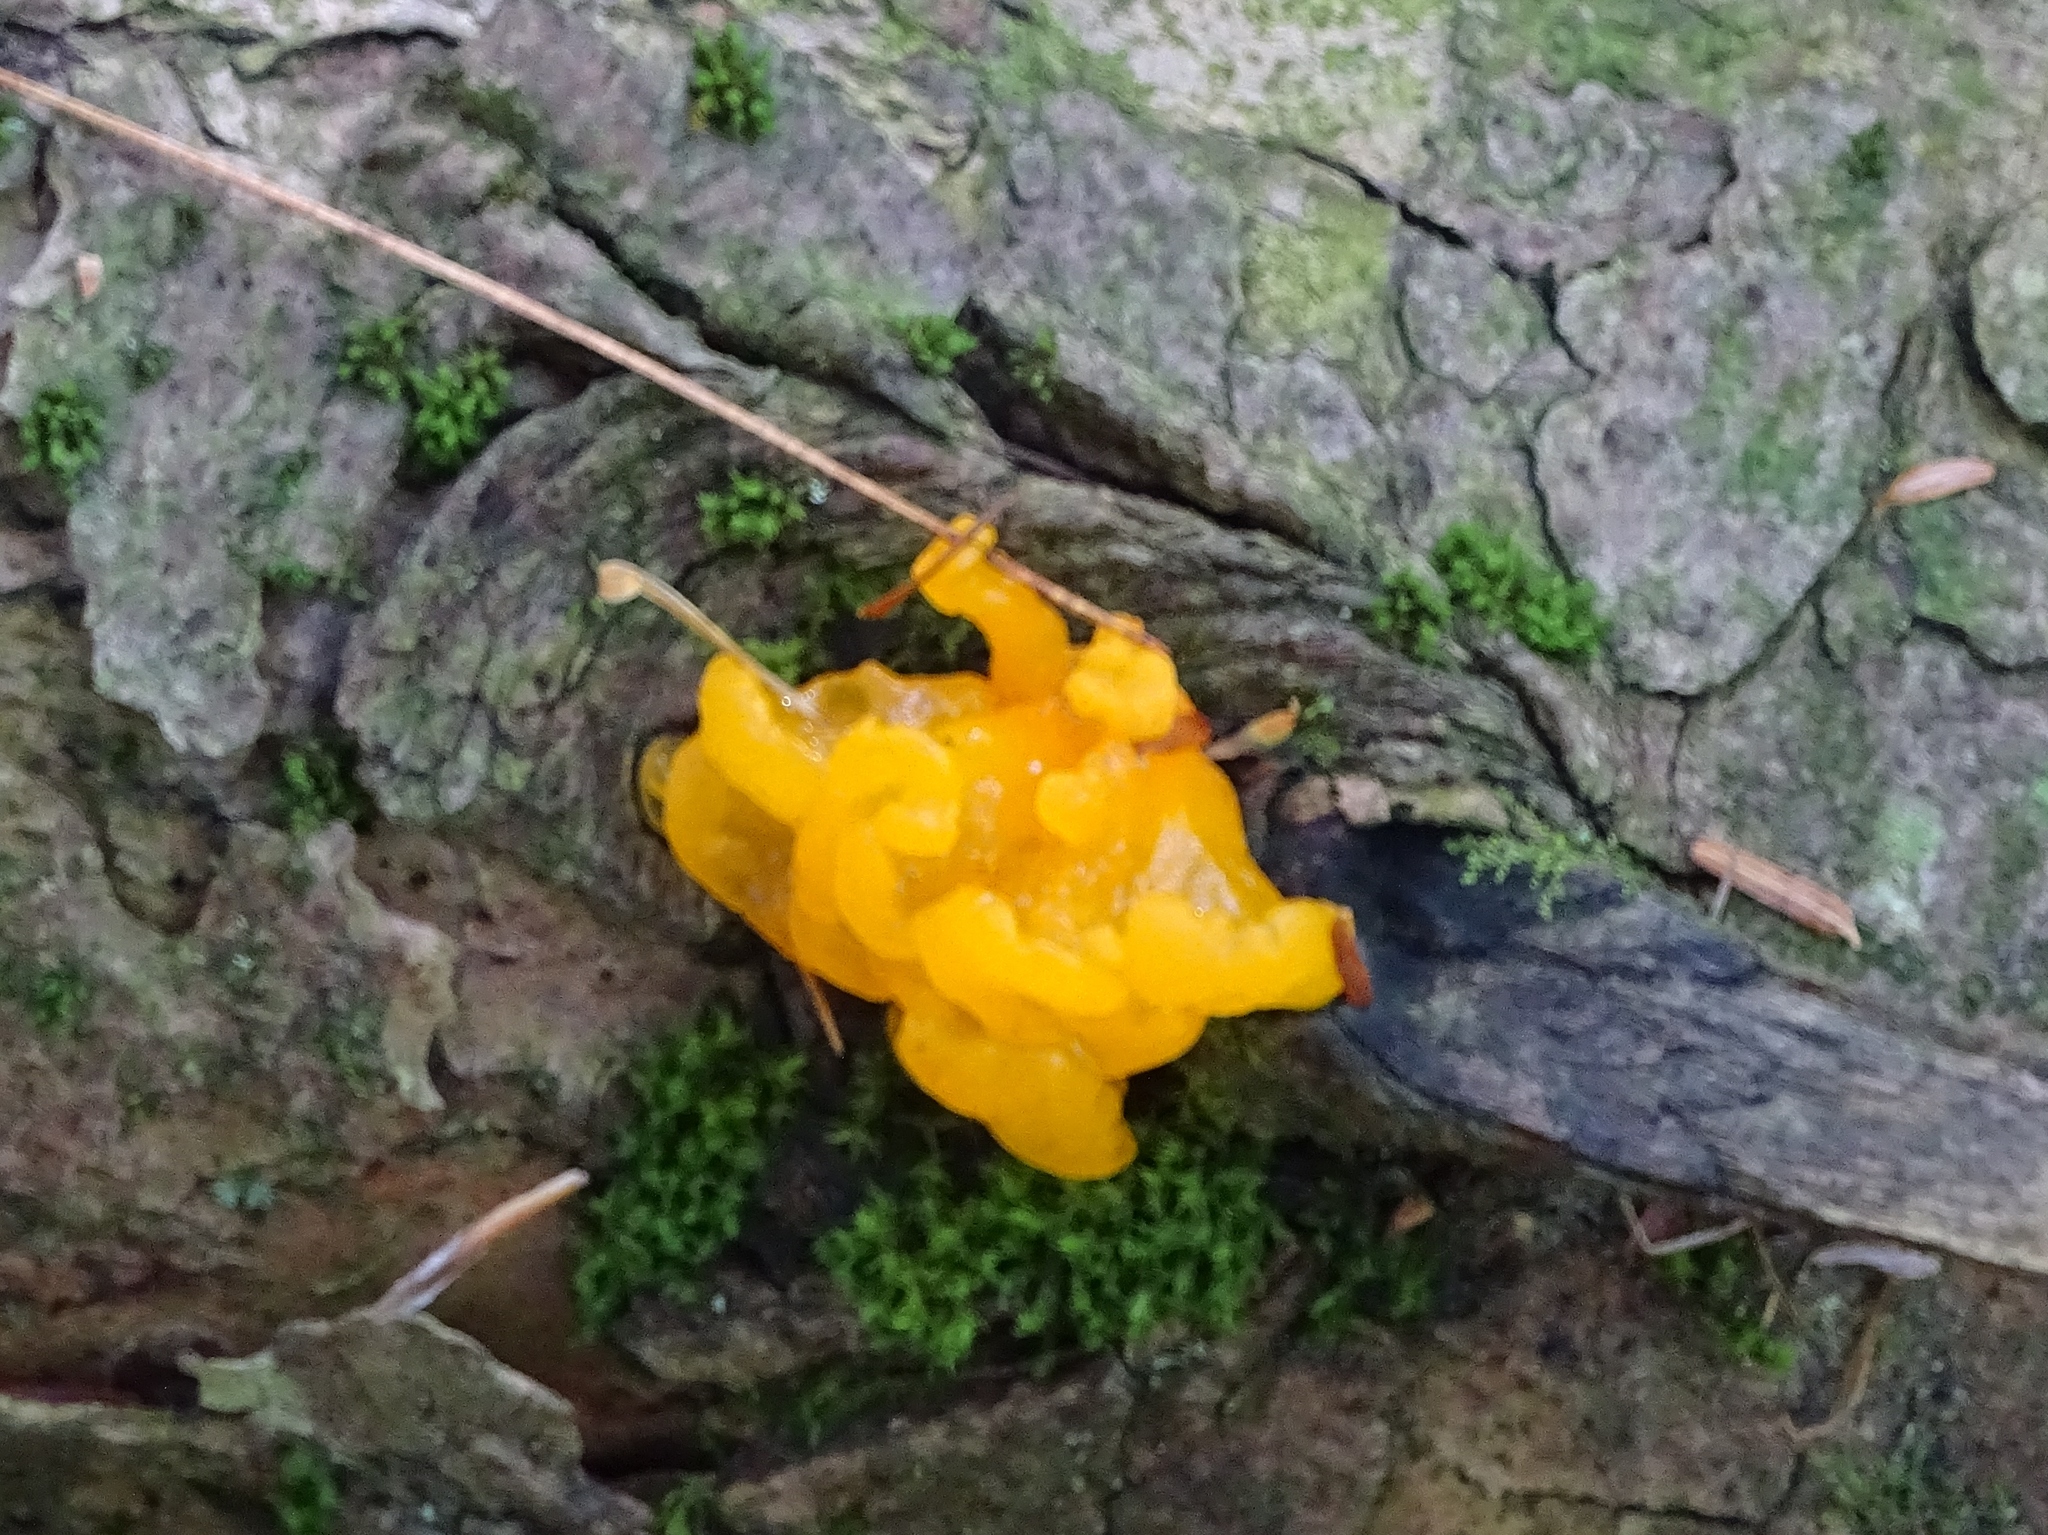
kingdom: Fungi
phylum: Basidiomycota
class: Dacrymycetes
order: Dacrymycetales
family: Dacrymycetaceae
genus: Dacrymyces
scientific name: Dacrymyces chrysospermus
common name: Orange jelly spot
